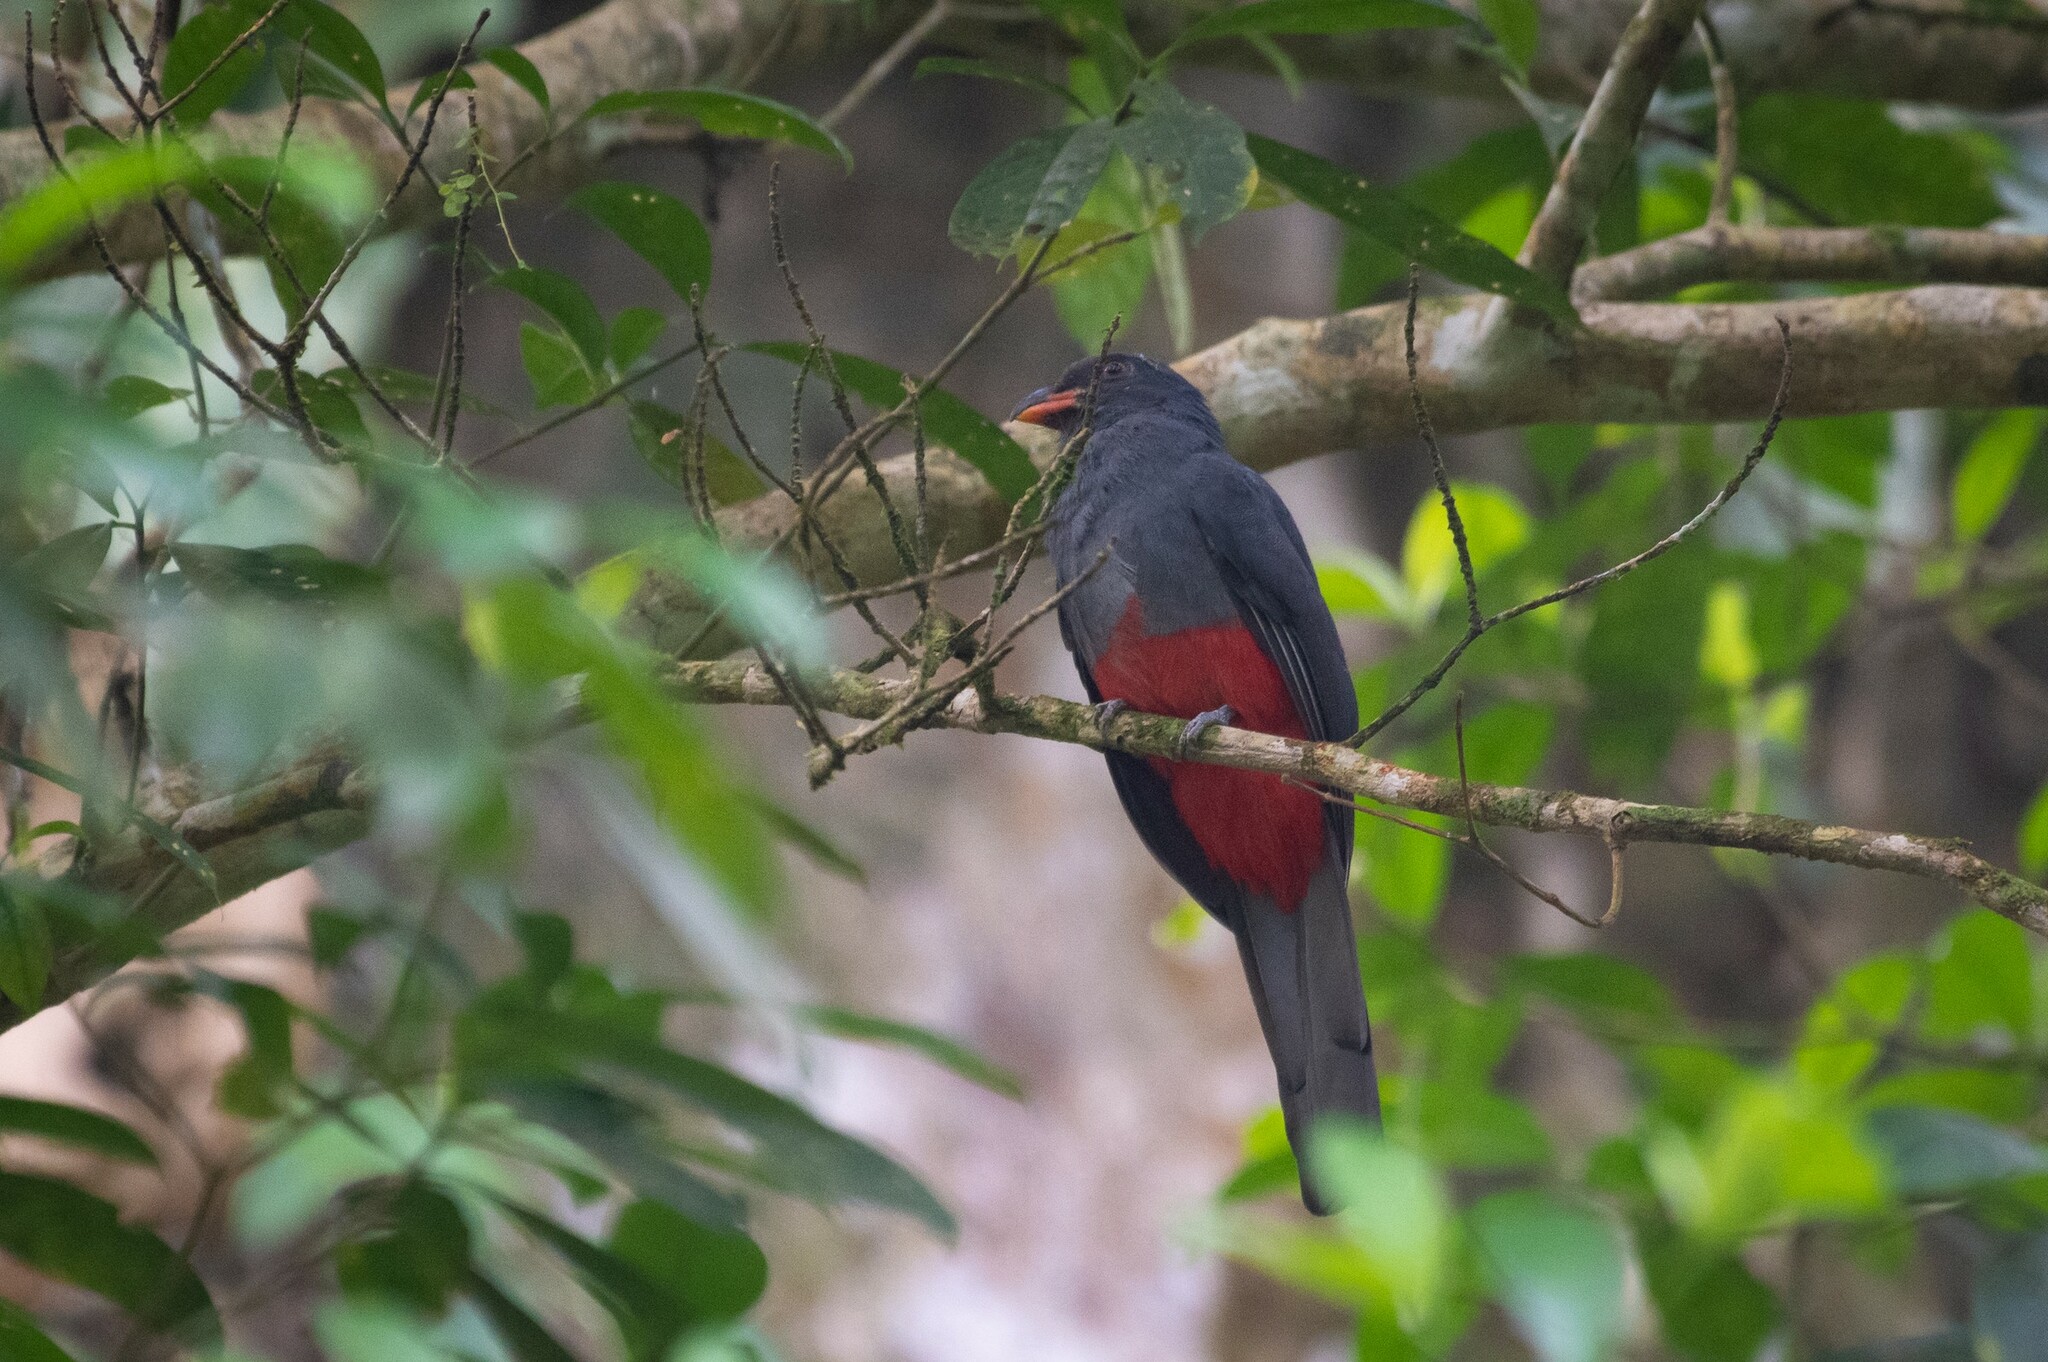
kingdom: Animalia
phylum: Chordata
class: Aves
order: Trogoniformes
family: Trogonidae
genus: Trogon
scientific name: Trogon massena
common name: Slaty-tailed trogon
